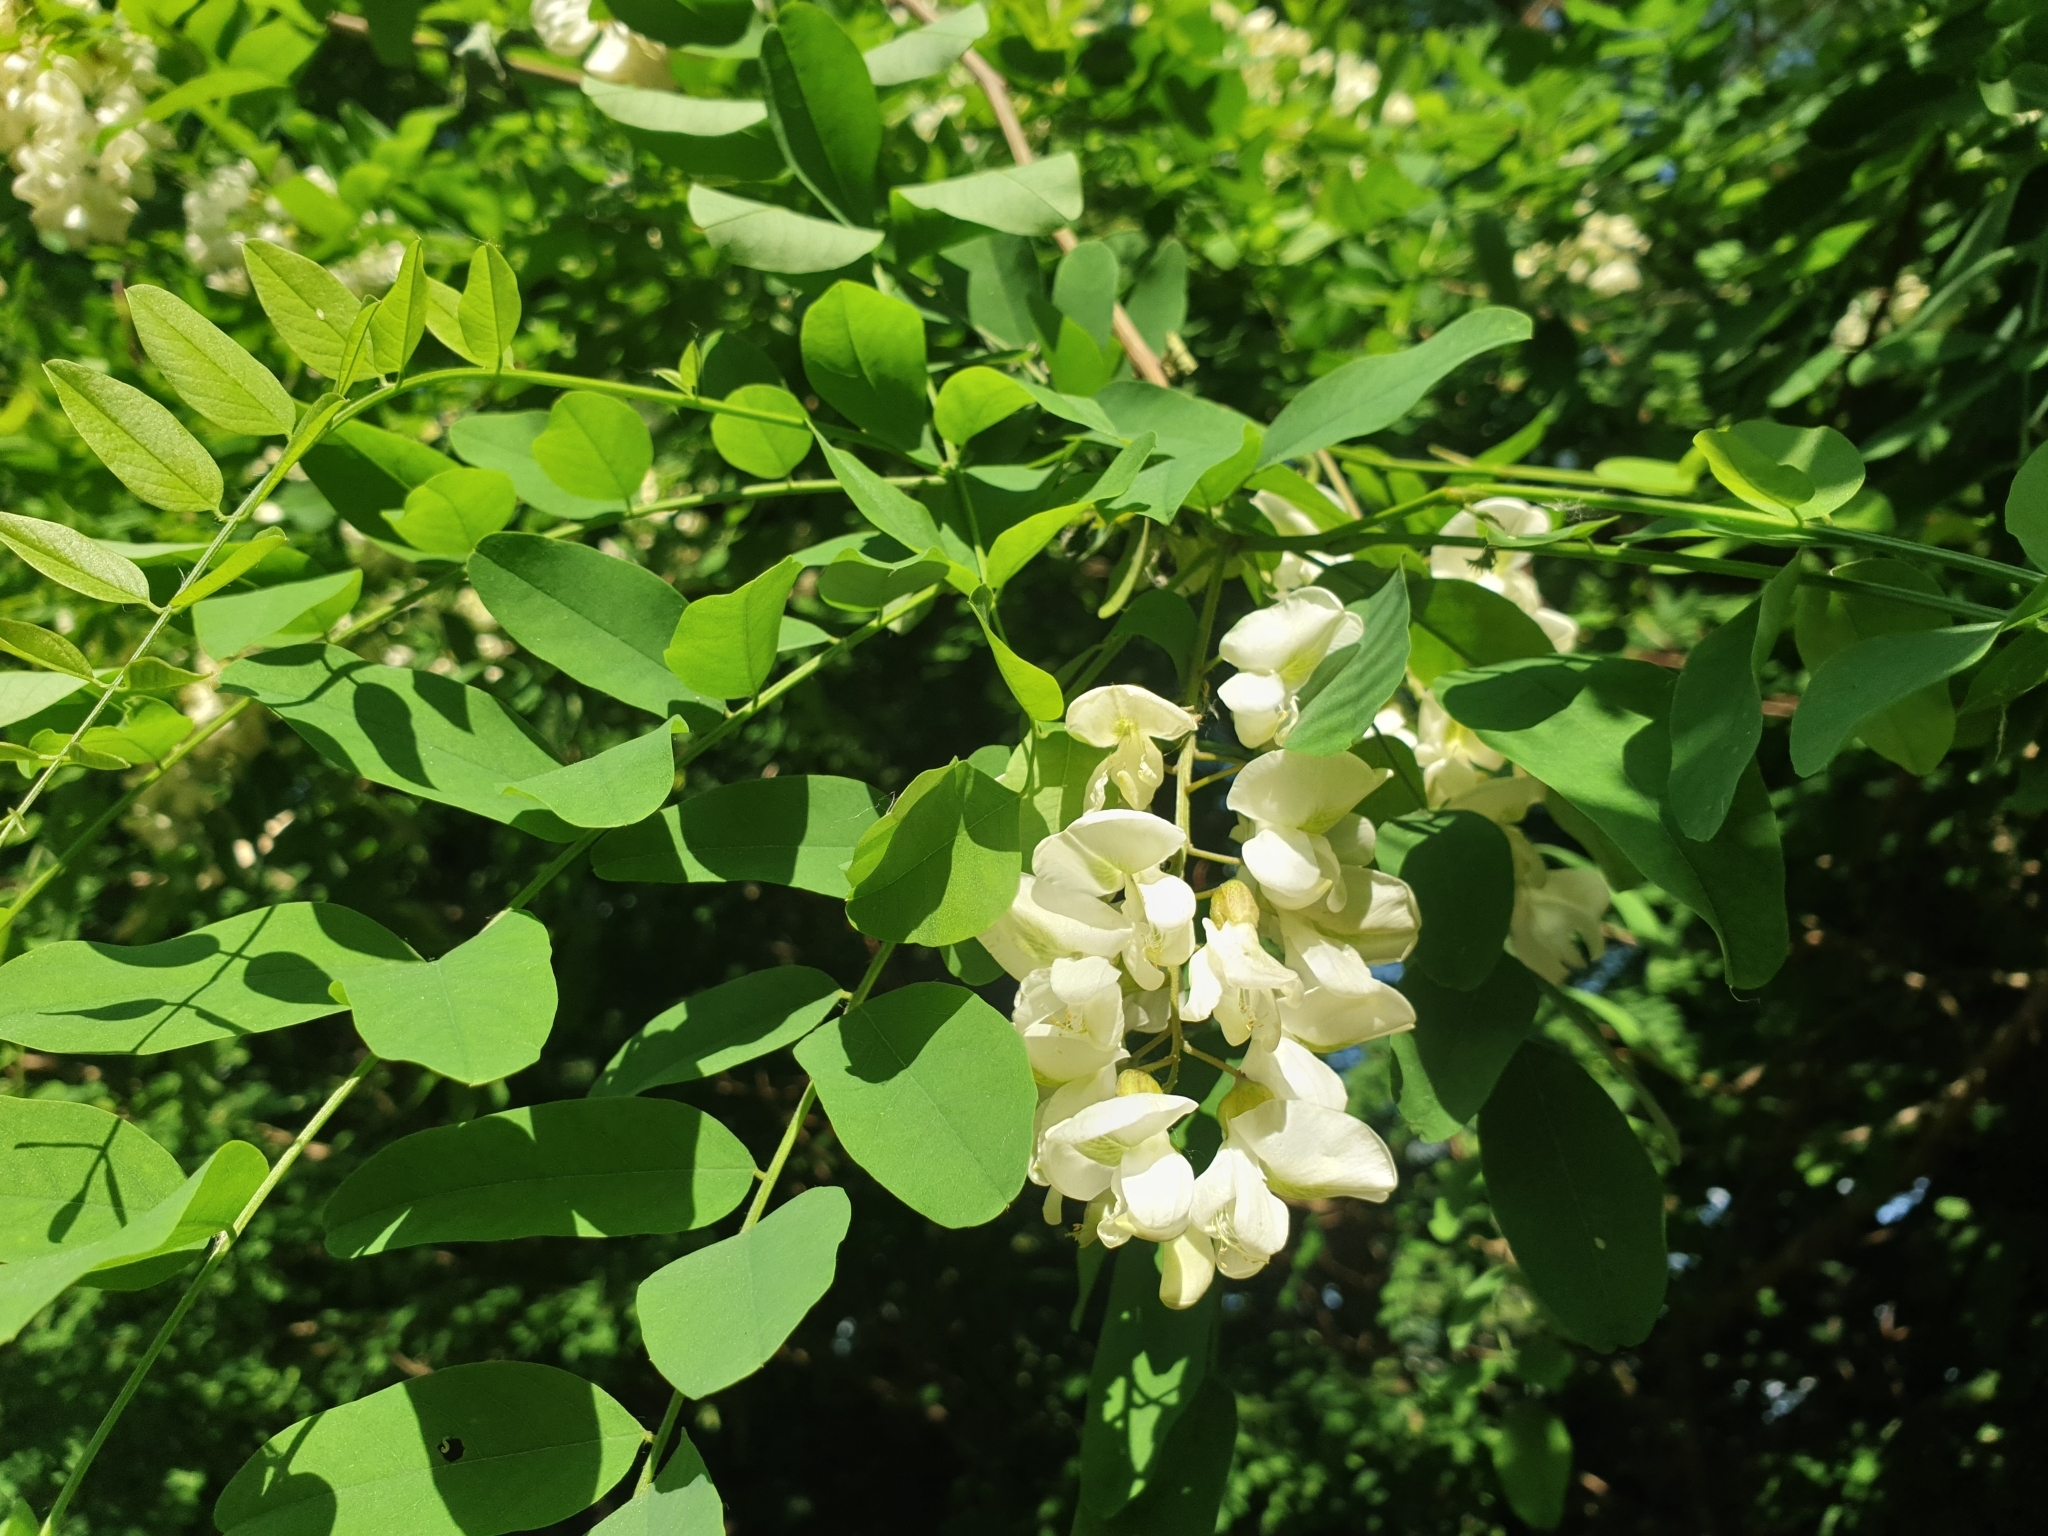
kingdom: Plantae
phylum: Tracheophyta
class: Magnoliopsida
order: Fabales
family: Fabaceae
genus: Robinia
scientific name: Robinia pseudoacacia
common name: Black locust
